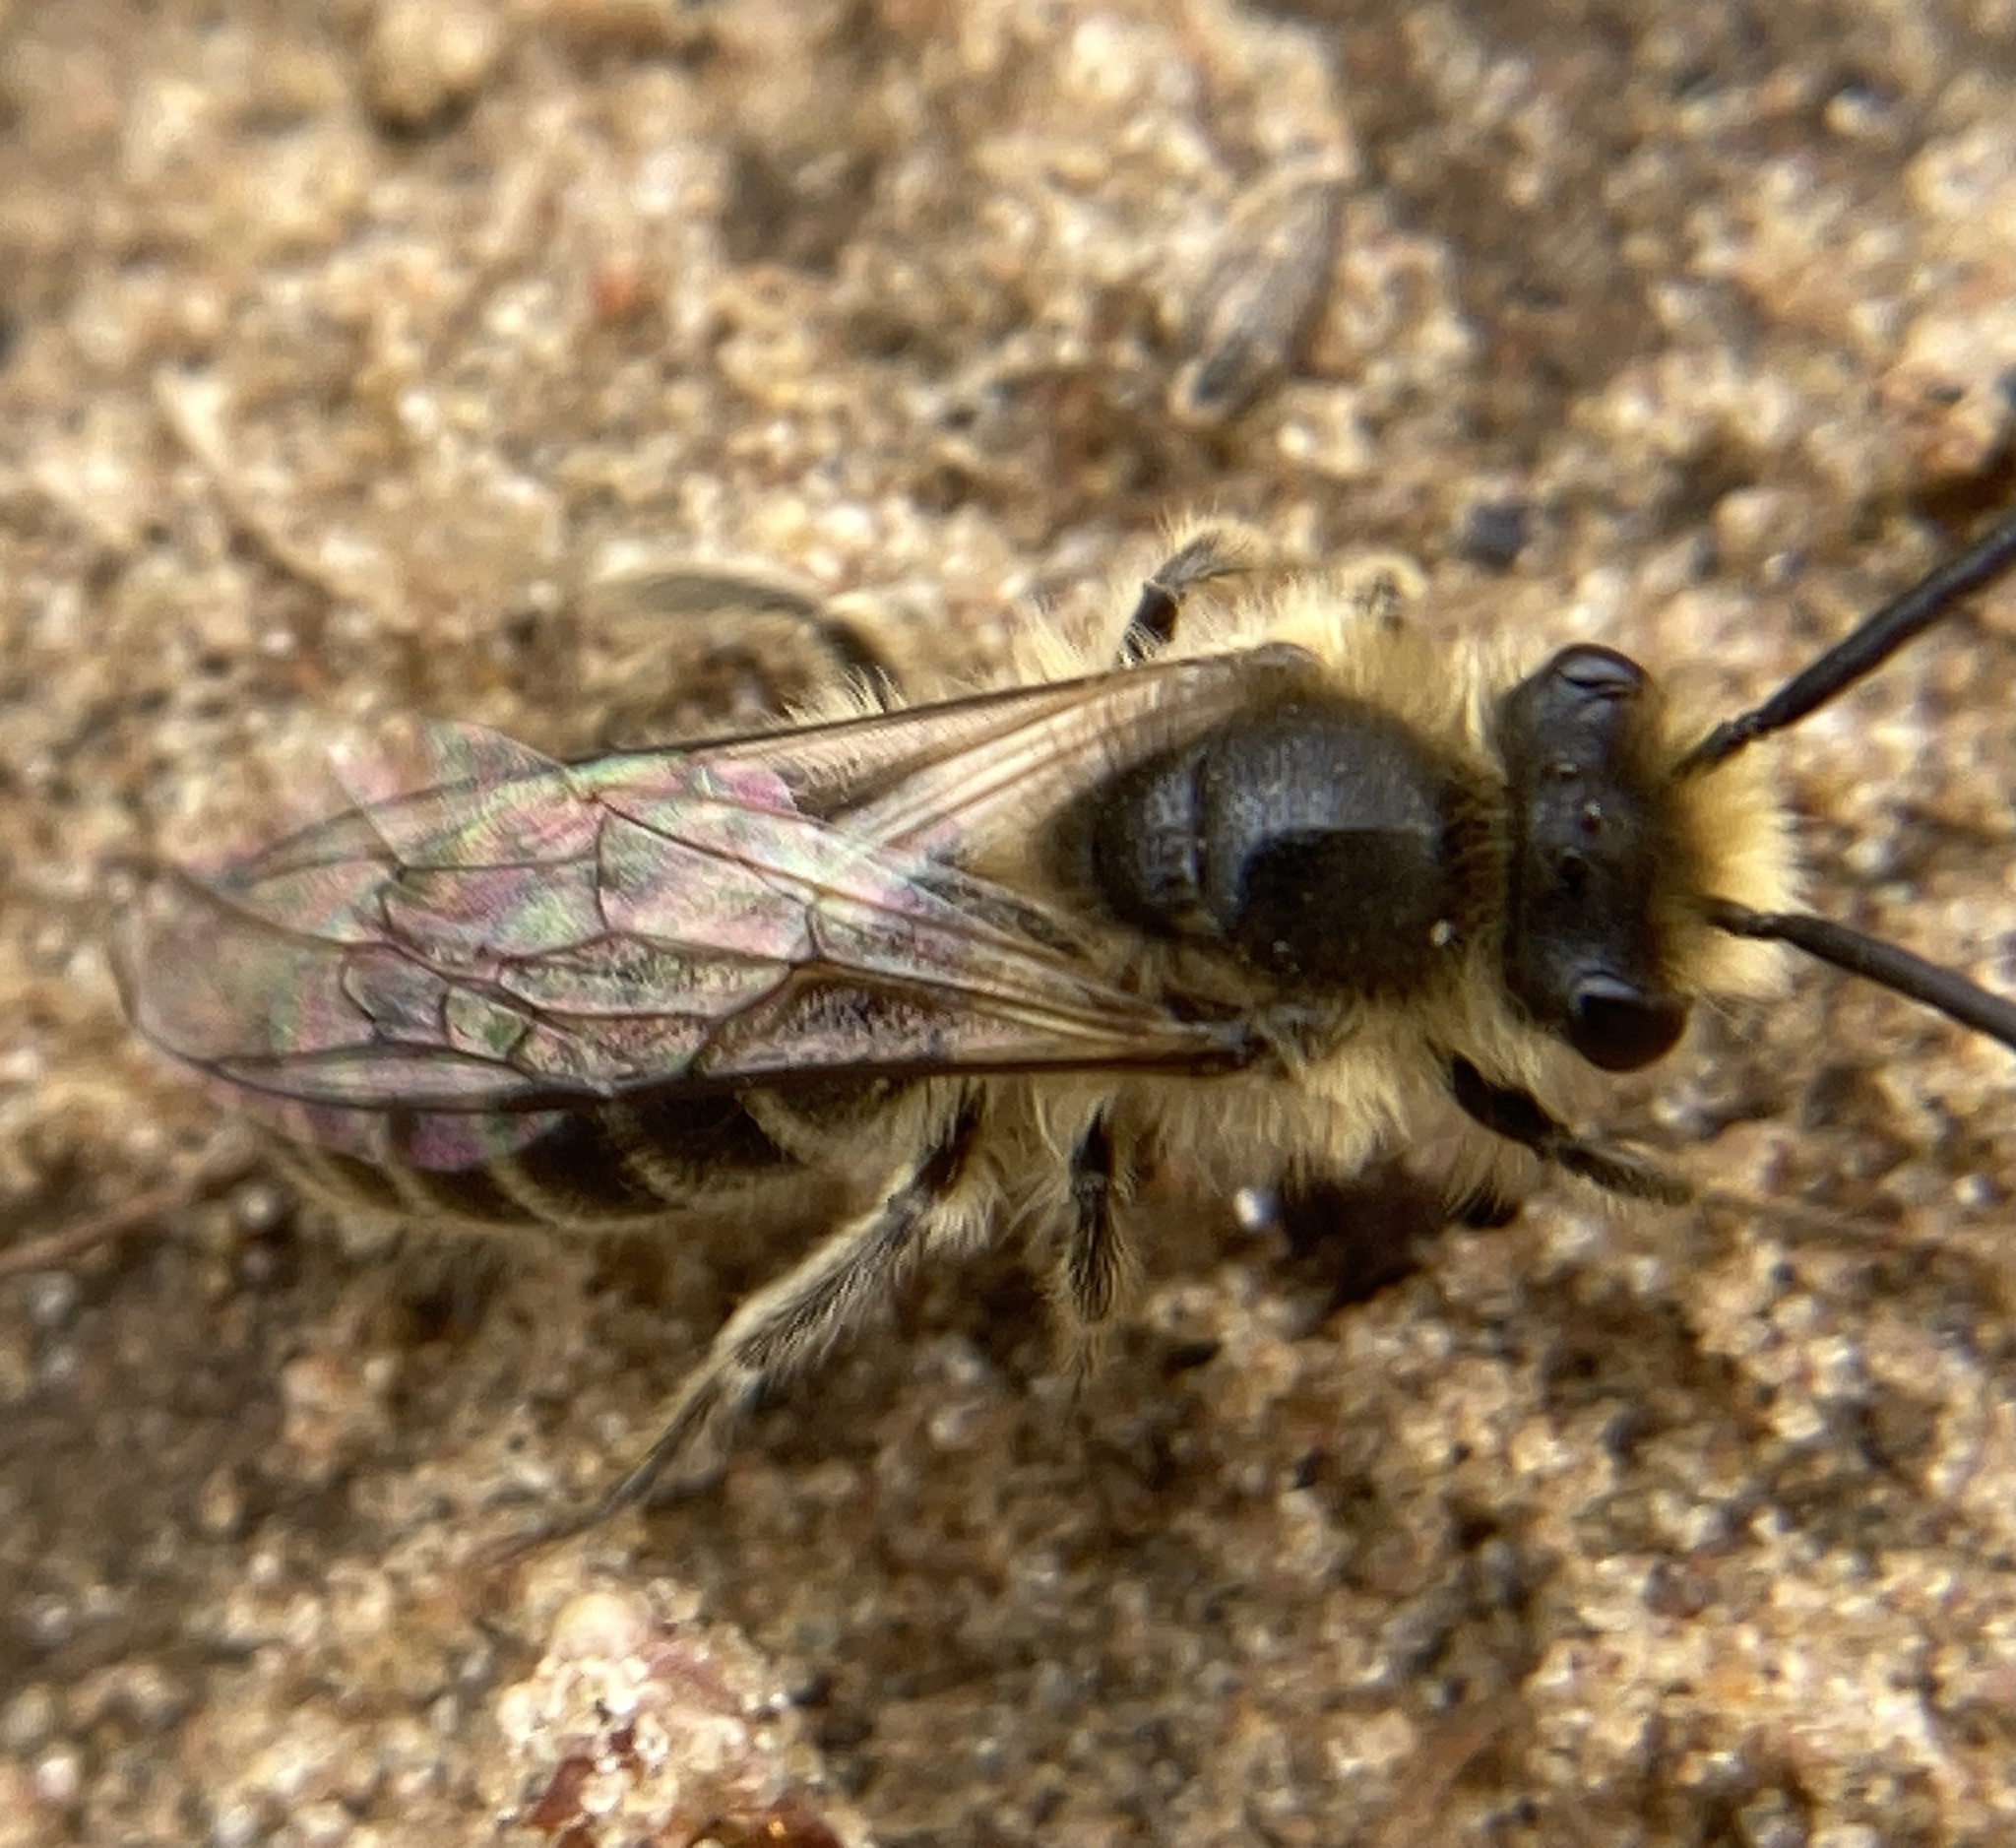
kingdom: Animalia
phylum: Arthropoda
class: Insecta
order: Hymenoptera
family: Colletidae
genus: Colletes
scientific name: Colletes inaequalis
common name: Unequal cellophane bee
